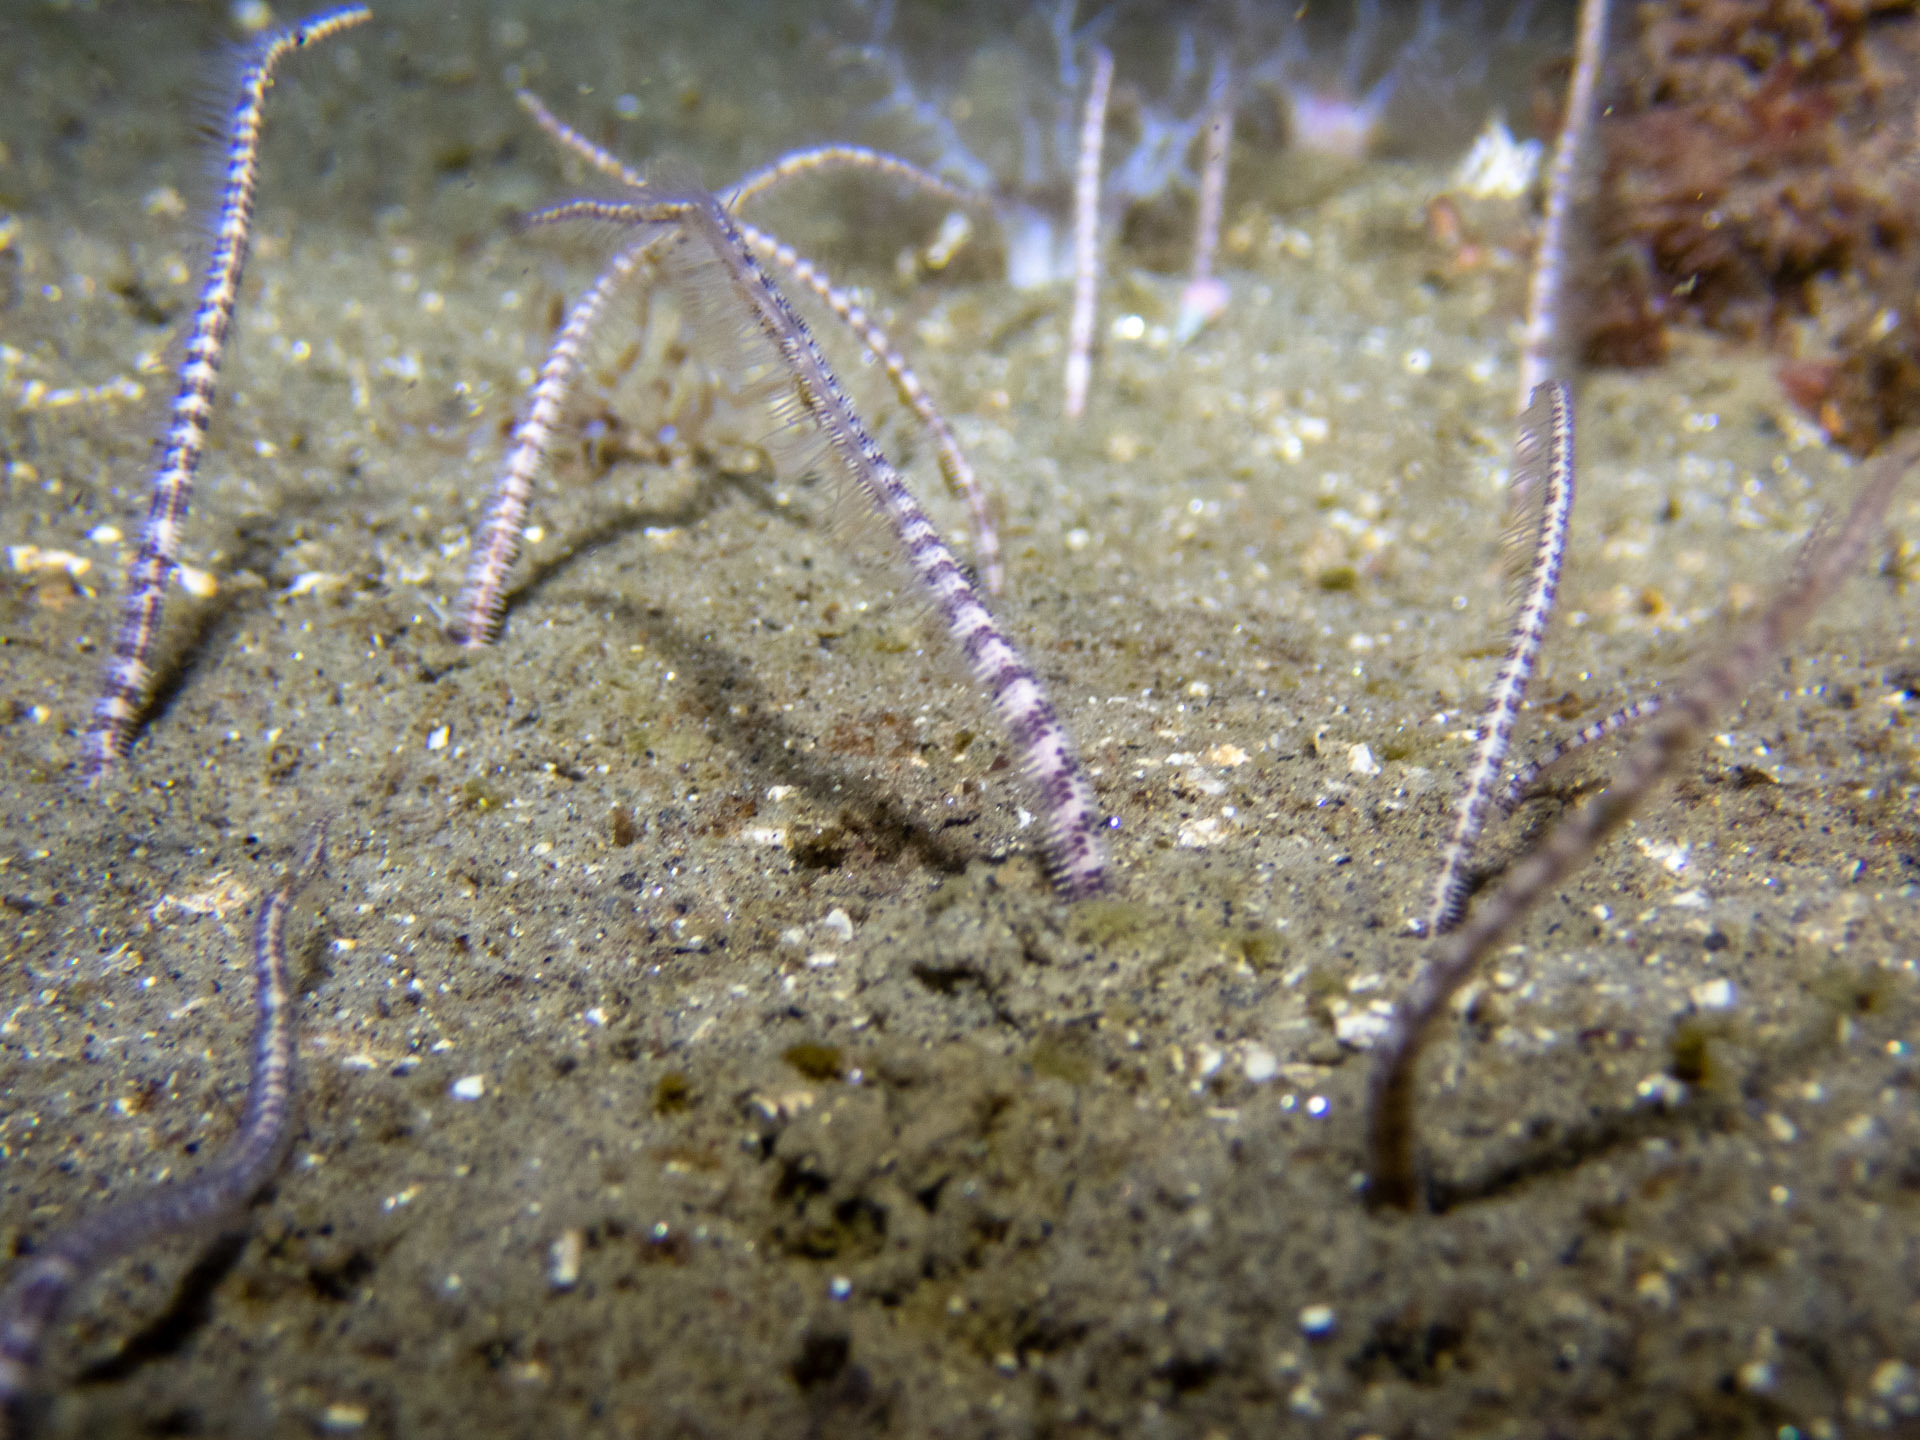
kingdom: Animalia
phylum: Echinodermata
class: Ophiuroidea
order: Amphilepidida
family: Amphiuridae
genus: Amphiura
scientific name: Amphiura arcystata
